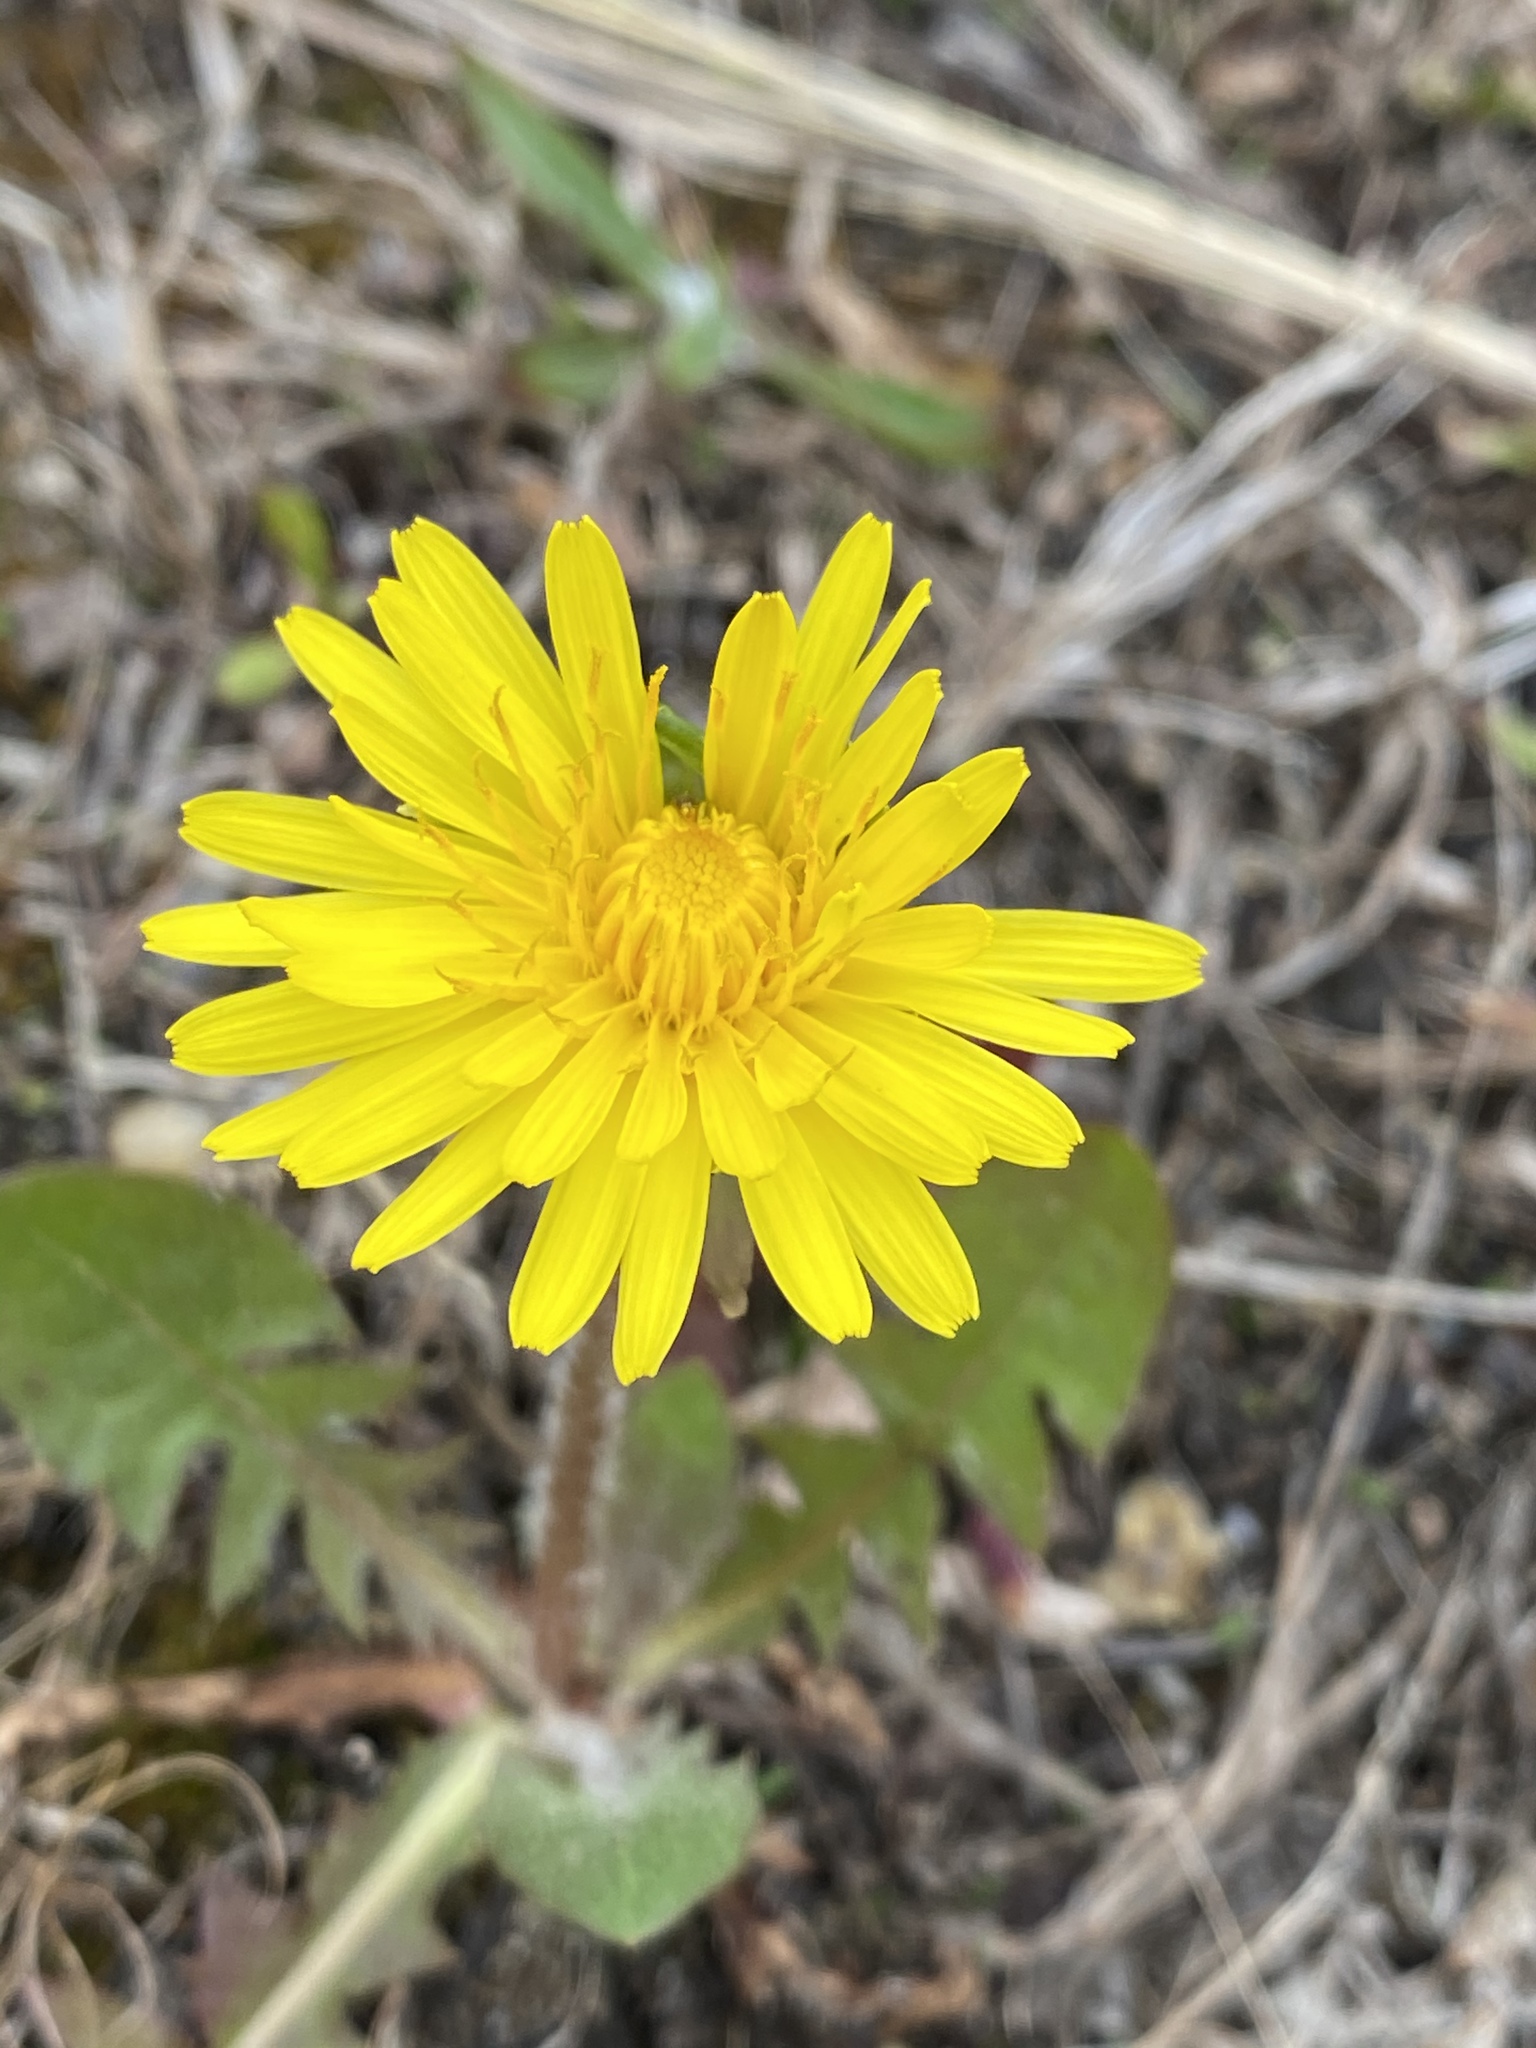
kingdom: Plantae
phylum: Tracheophyta
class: Magnoliopsida
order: Asterales
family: Asteraceae
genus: Taraxacum
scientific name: Taraxacum officinale
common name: Common dandelion
